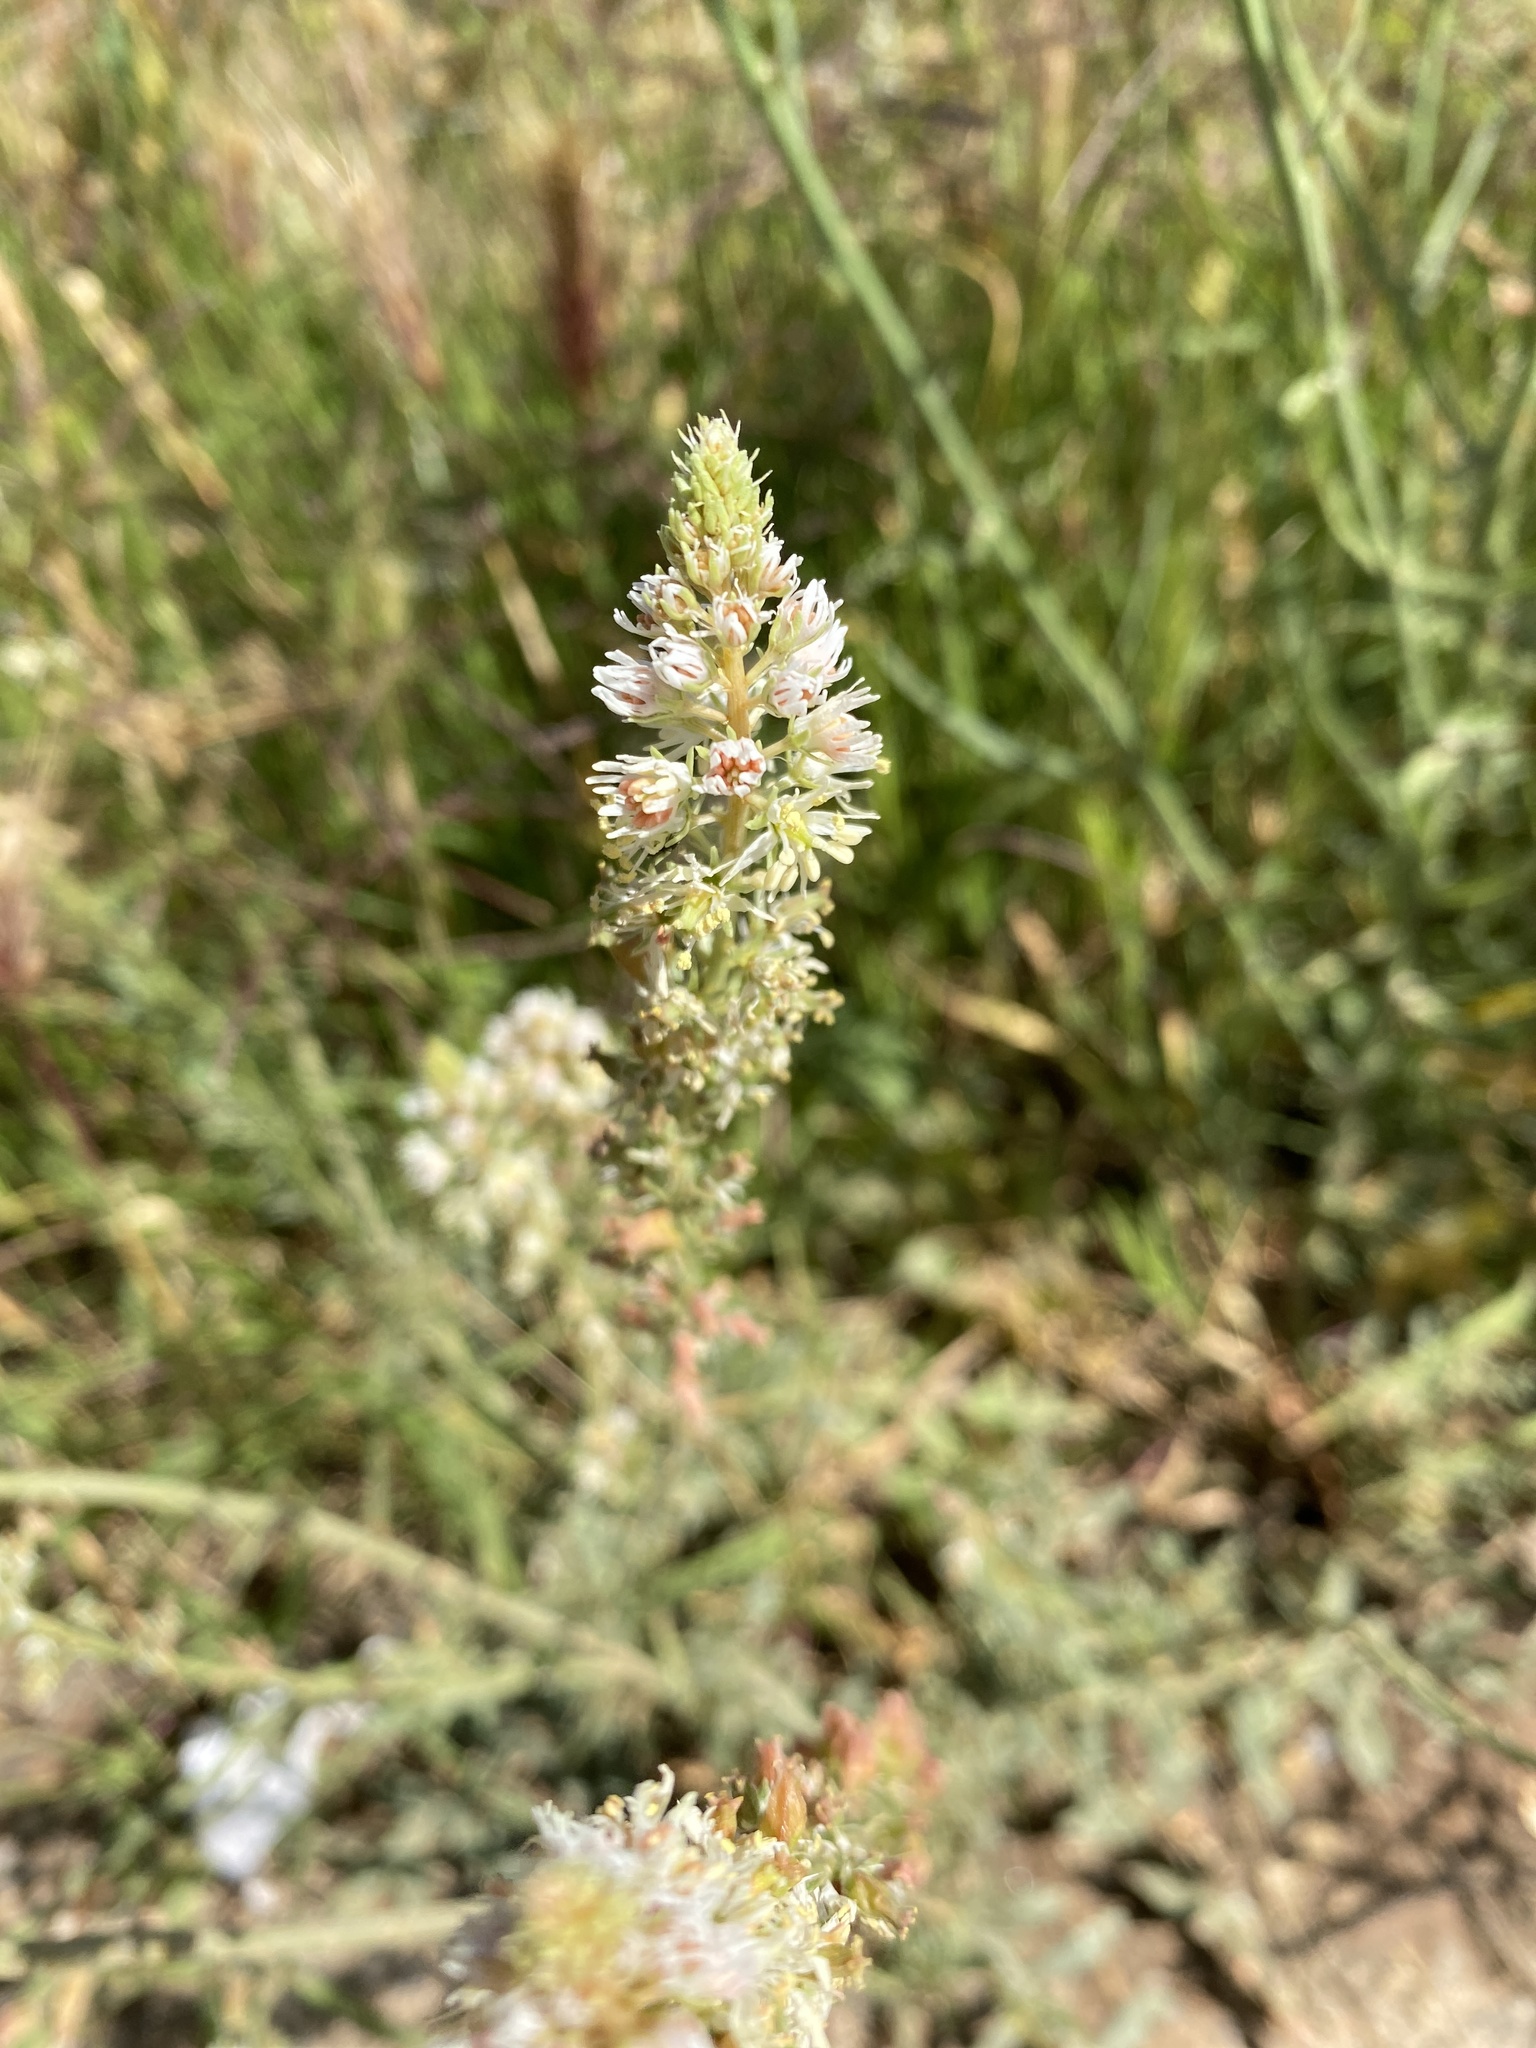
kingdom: Plantae
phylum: Tracheophyta
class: Magnoliopsida
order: Brassicales
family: Resedaceae
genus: Reseda
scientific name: Reseda alba
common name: White mignonette
